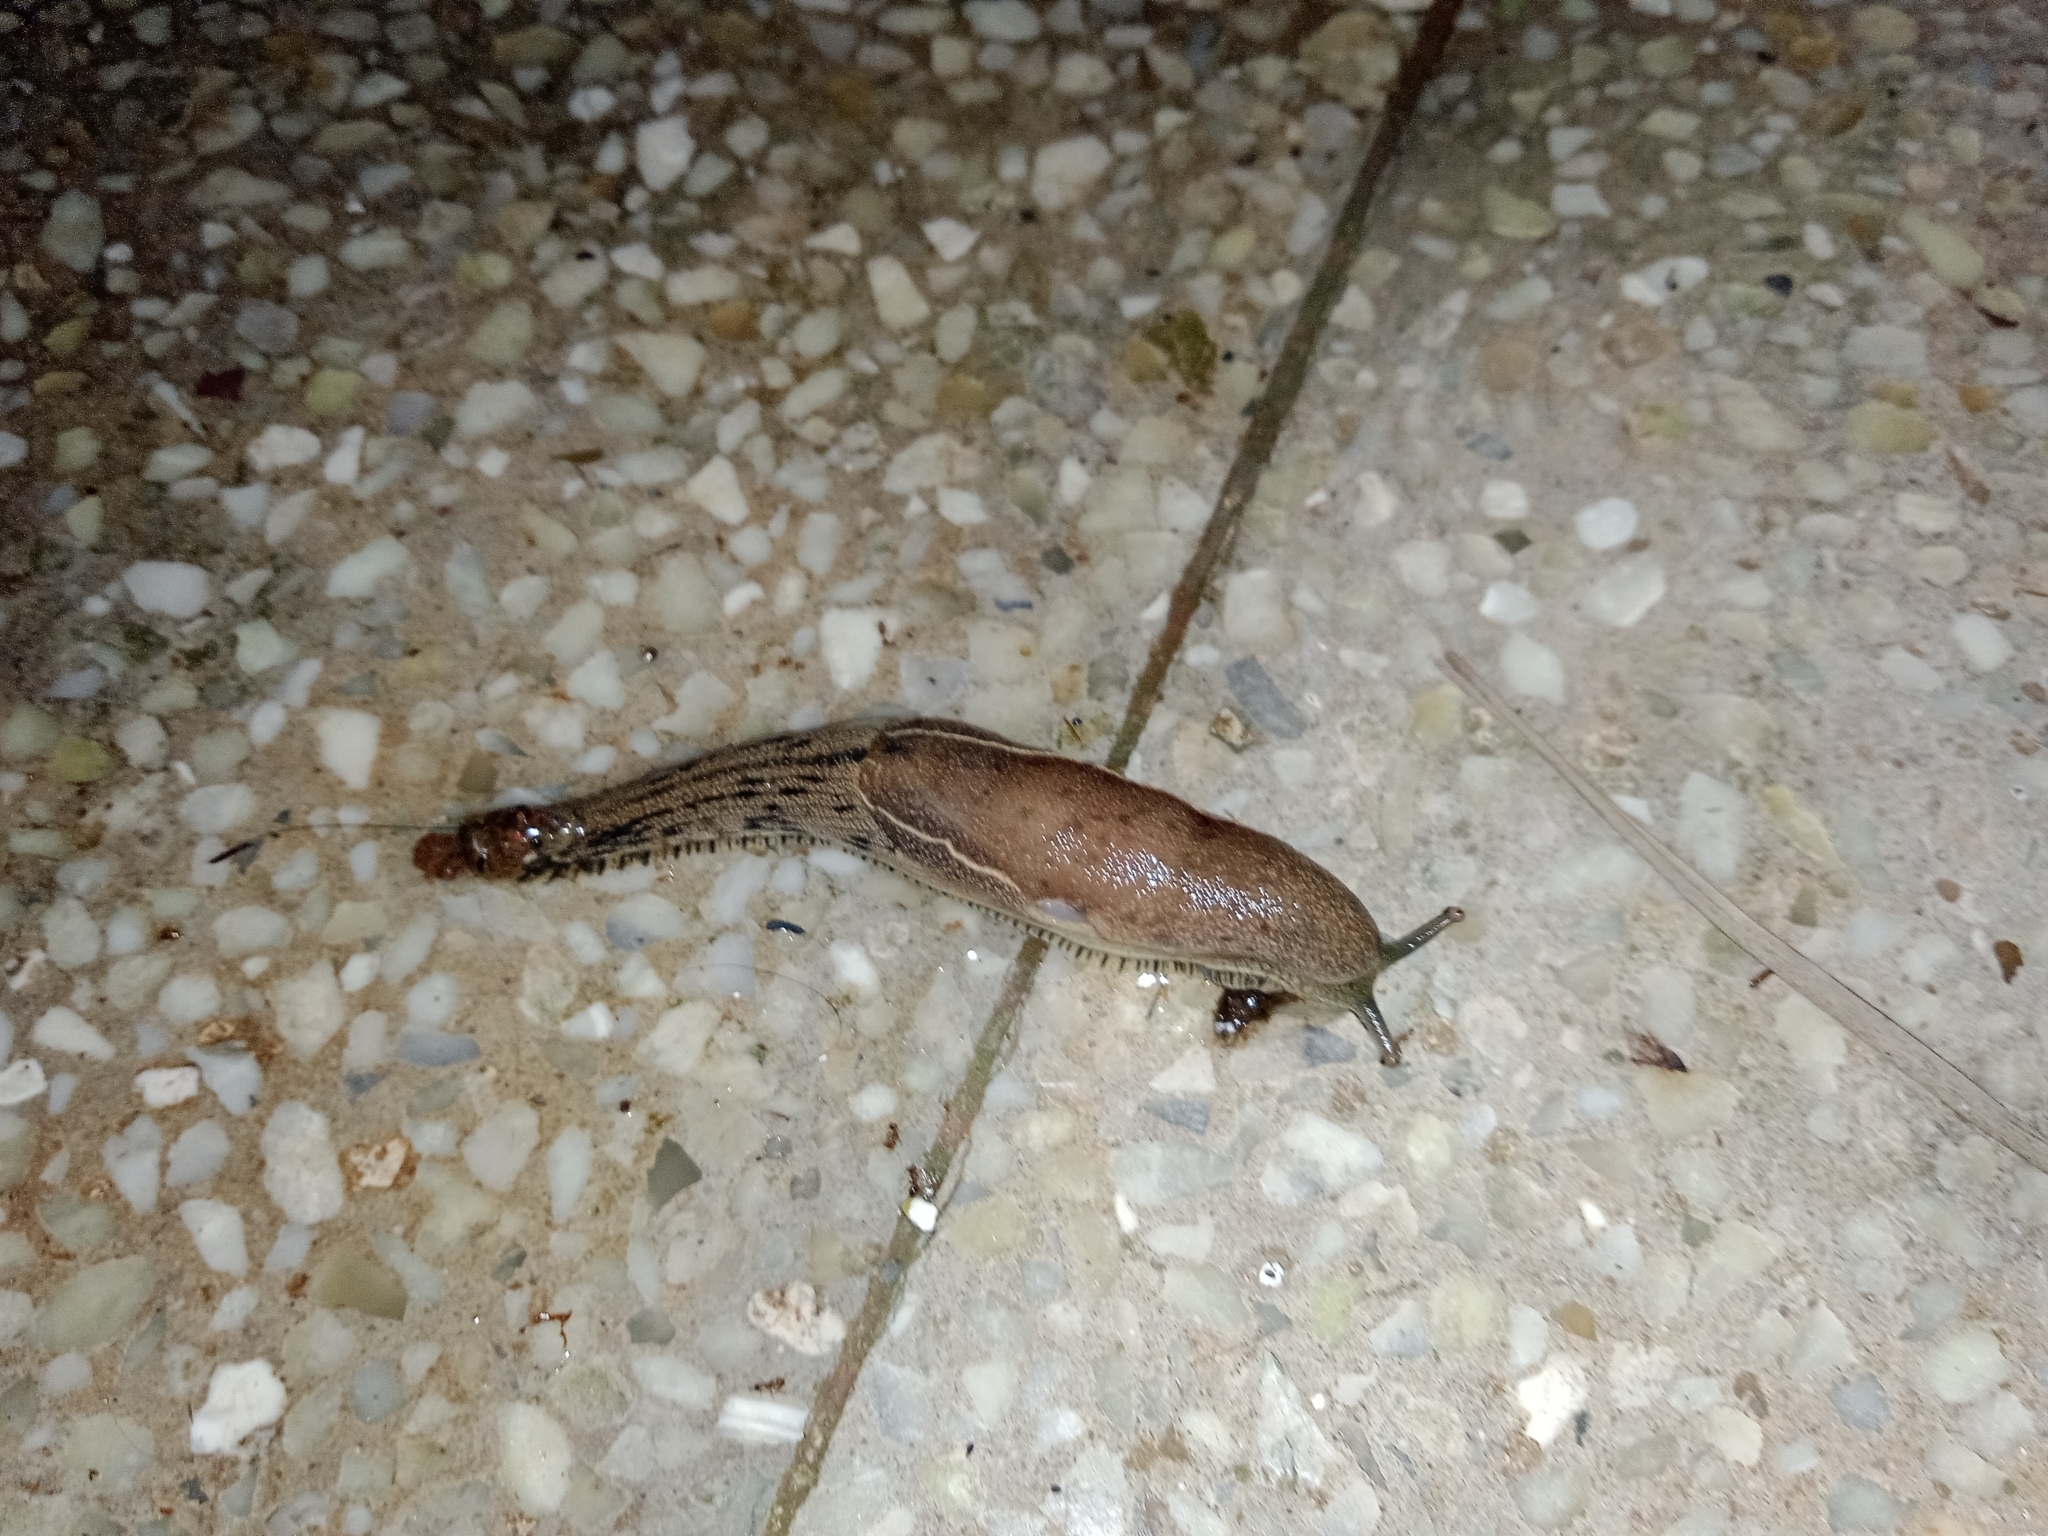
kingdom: Animalia
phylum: Mollusca
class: Gastropoda
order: Stylommatophora
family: Ariophantidae
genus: Mariaella
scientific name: Mariaella dussumieri
